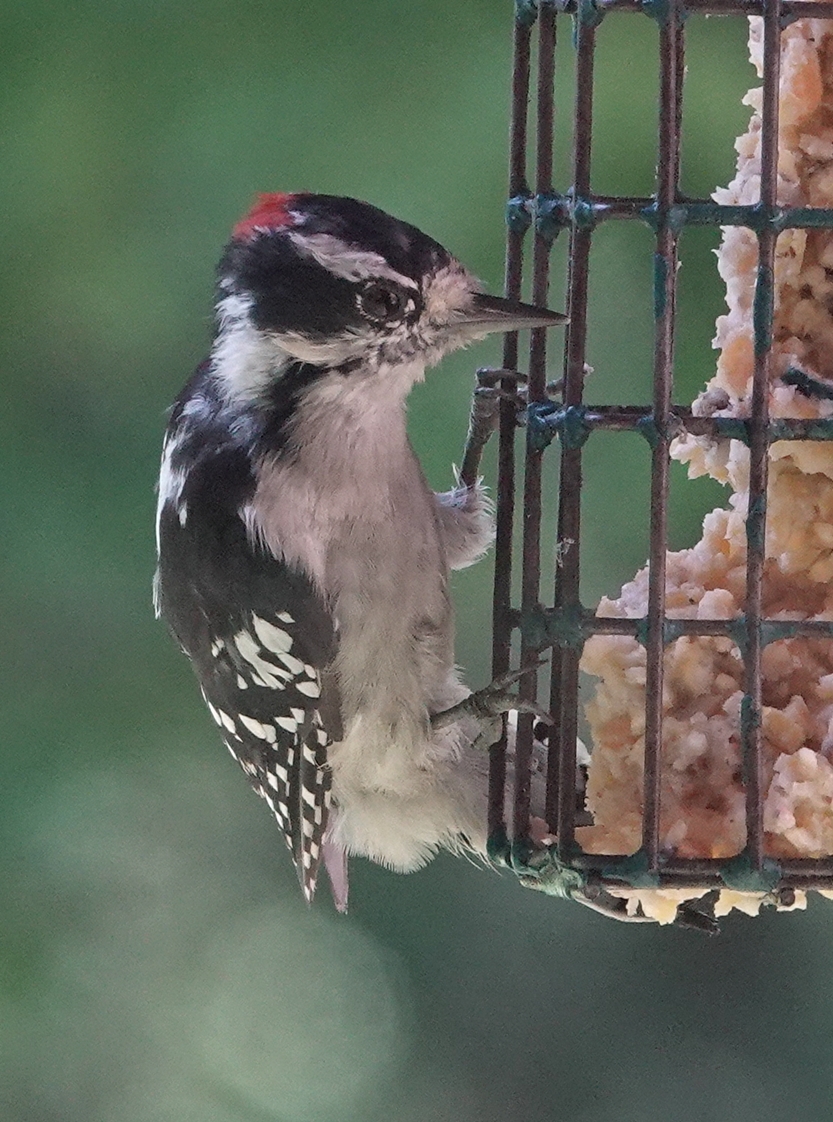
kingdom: Animalia
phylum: Chordata
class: Aves
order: Piciformes
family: Picidae
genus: Dryobates
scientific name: Dryobates pubescens
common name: Downy woodpecker
